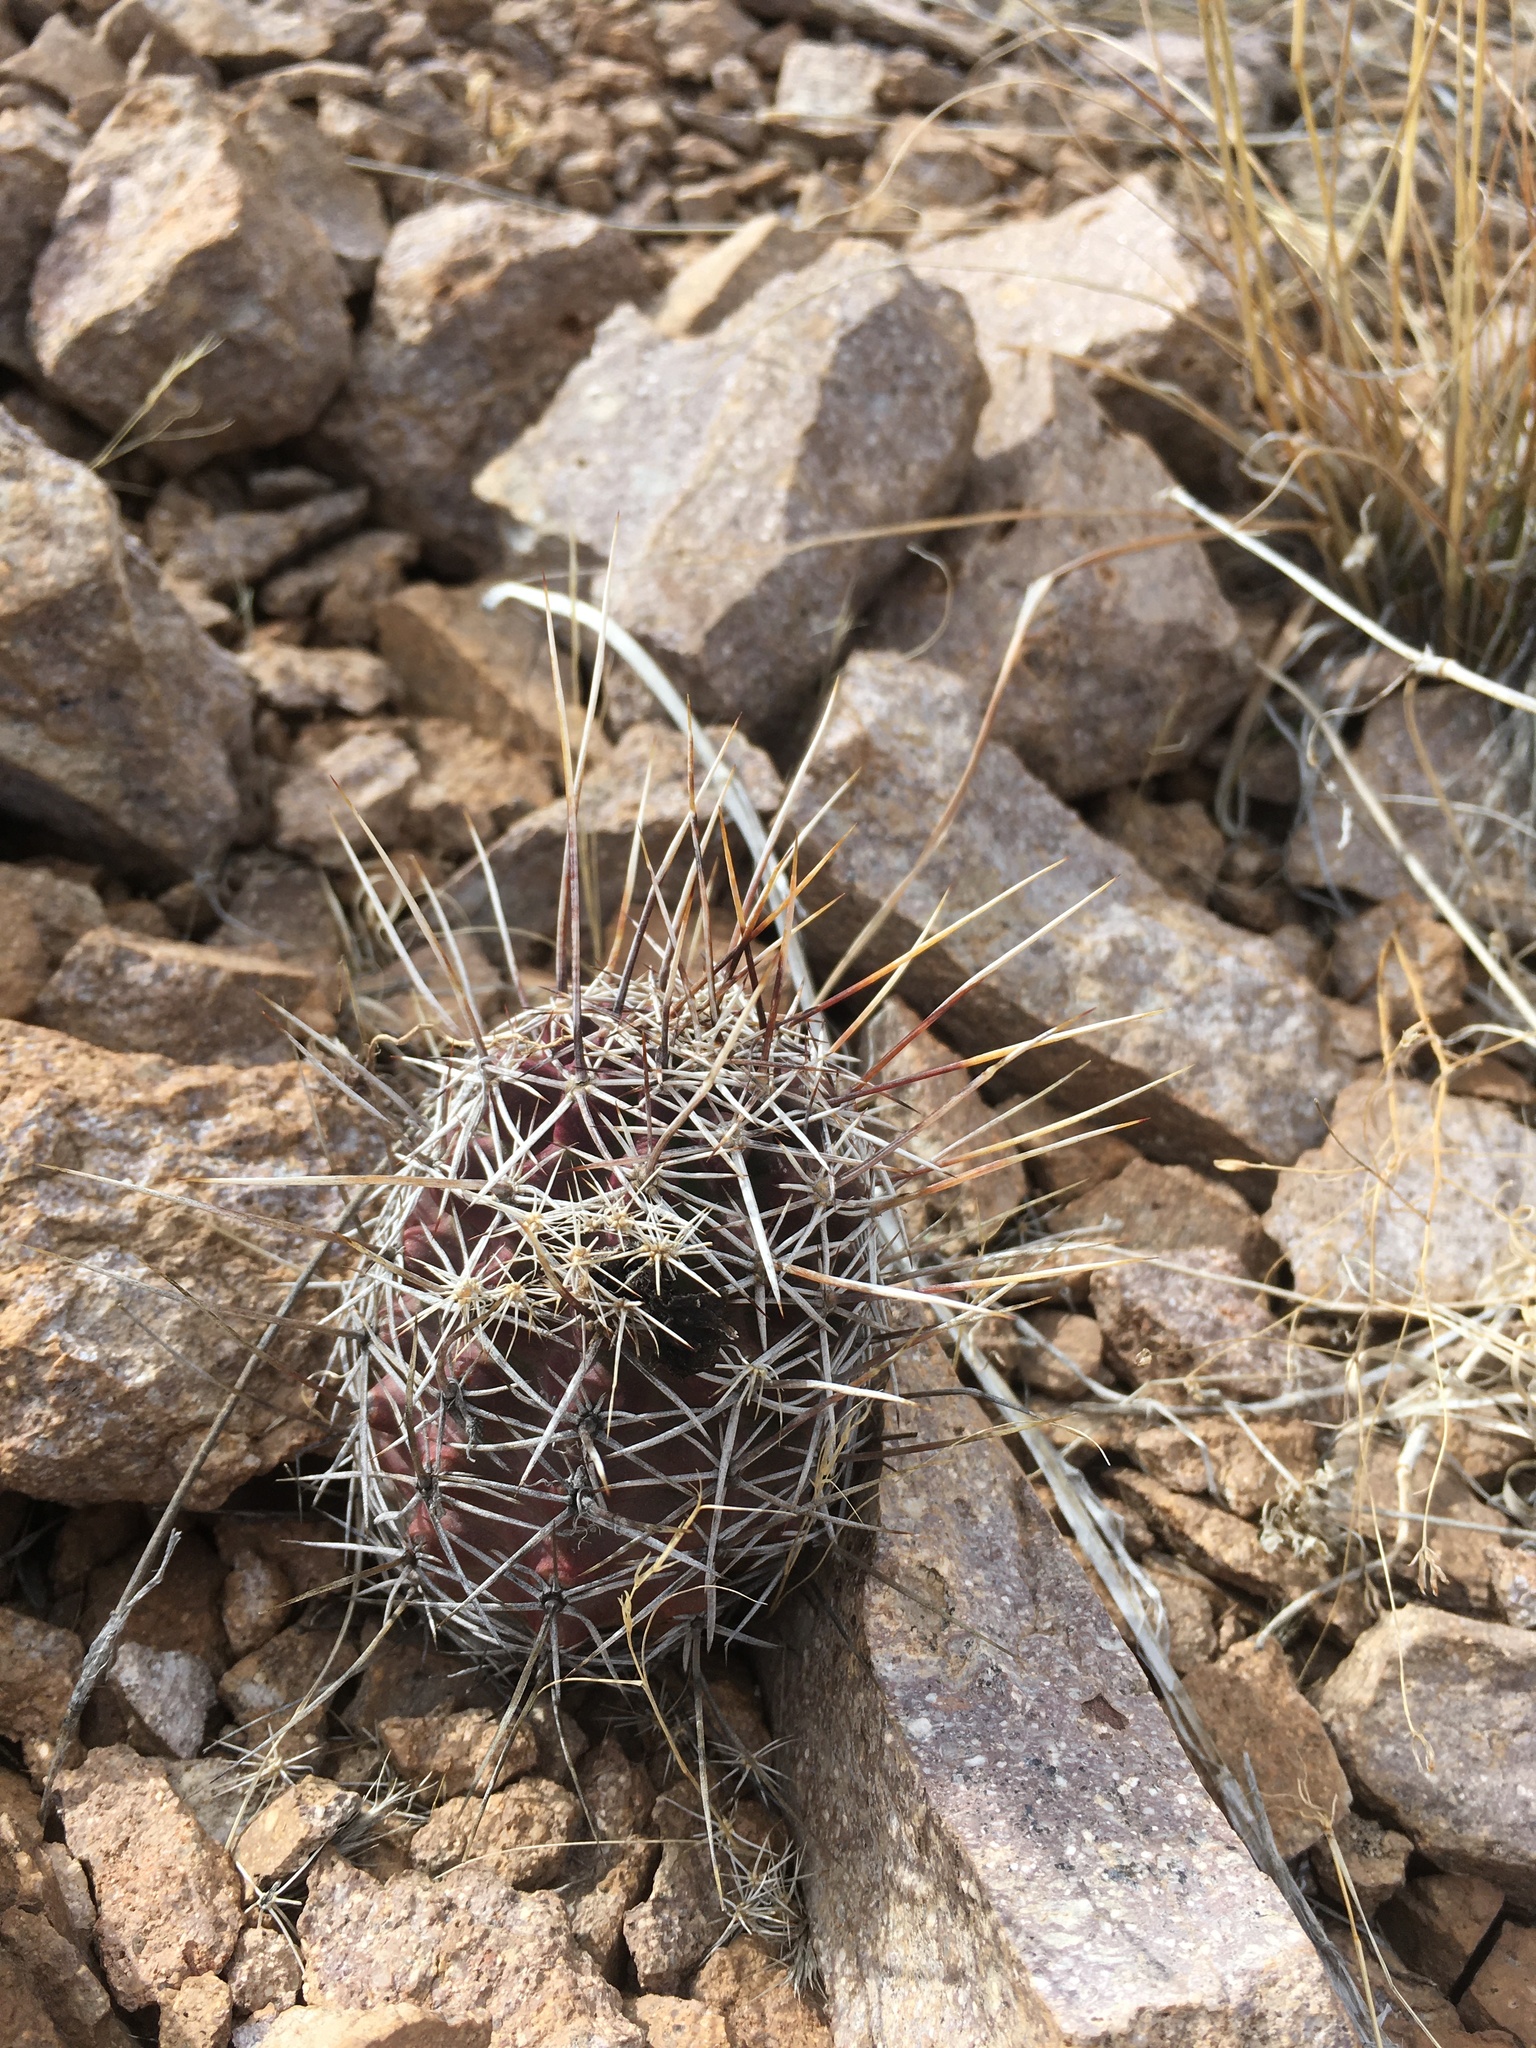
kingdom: Plantae
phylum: Tracheophyta
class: Magnoliopsida
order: Caryophyllales
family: Cactaceae
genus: Echinocereus
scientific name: Echinocereus fendleri
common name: Fendler's hedgehog cactus
